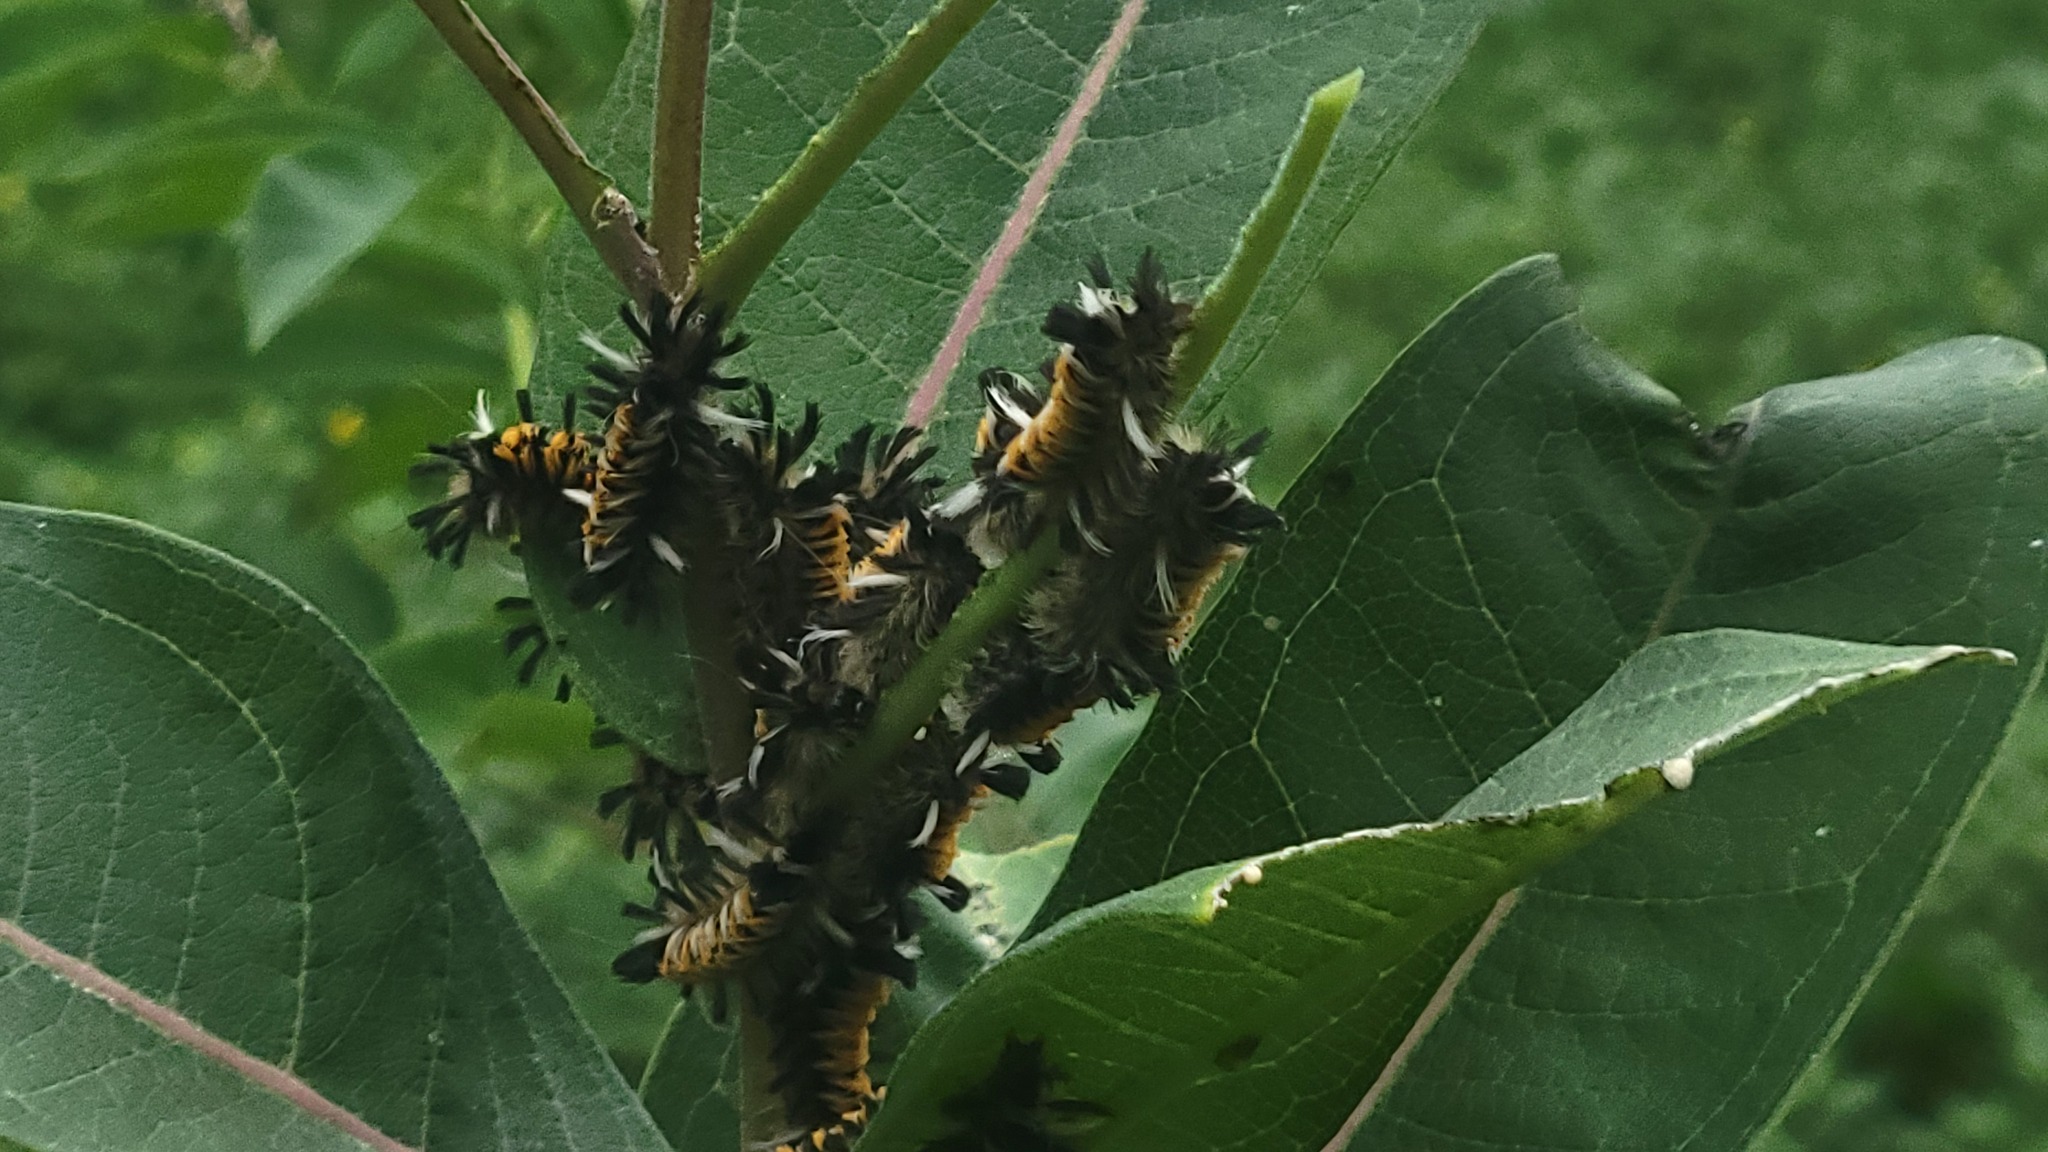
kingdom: Animalia
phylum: Arthropoda
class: Insecta
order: Lepidoptera
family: Erebidae
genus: Euchaetes
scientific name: Euchaetes egle
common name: Milkweed tussock moth
